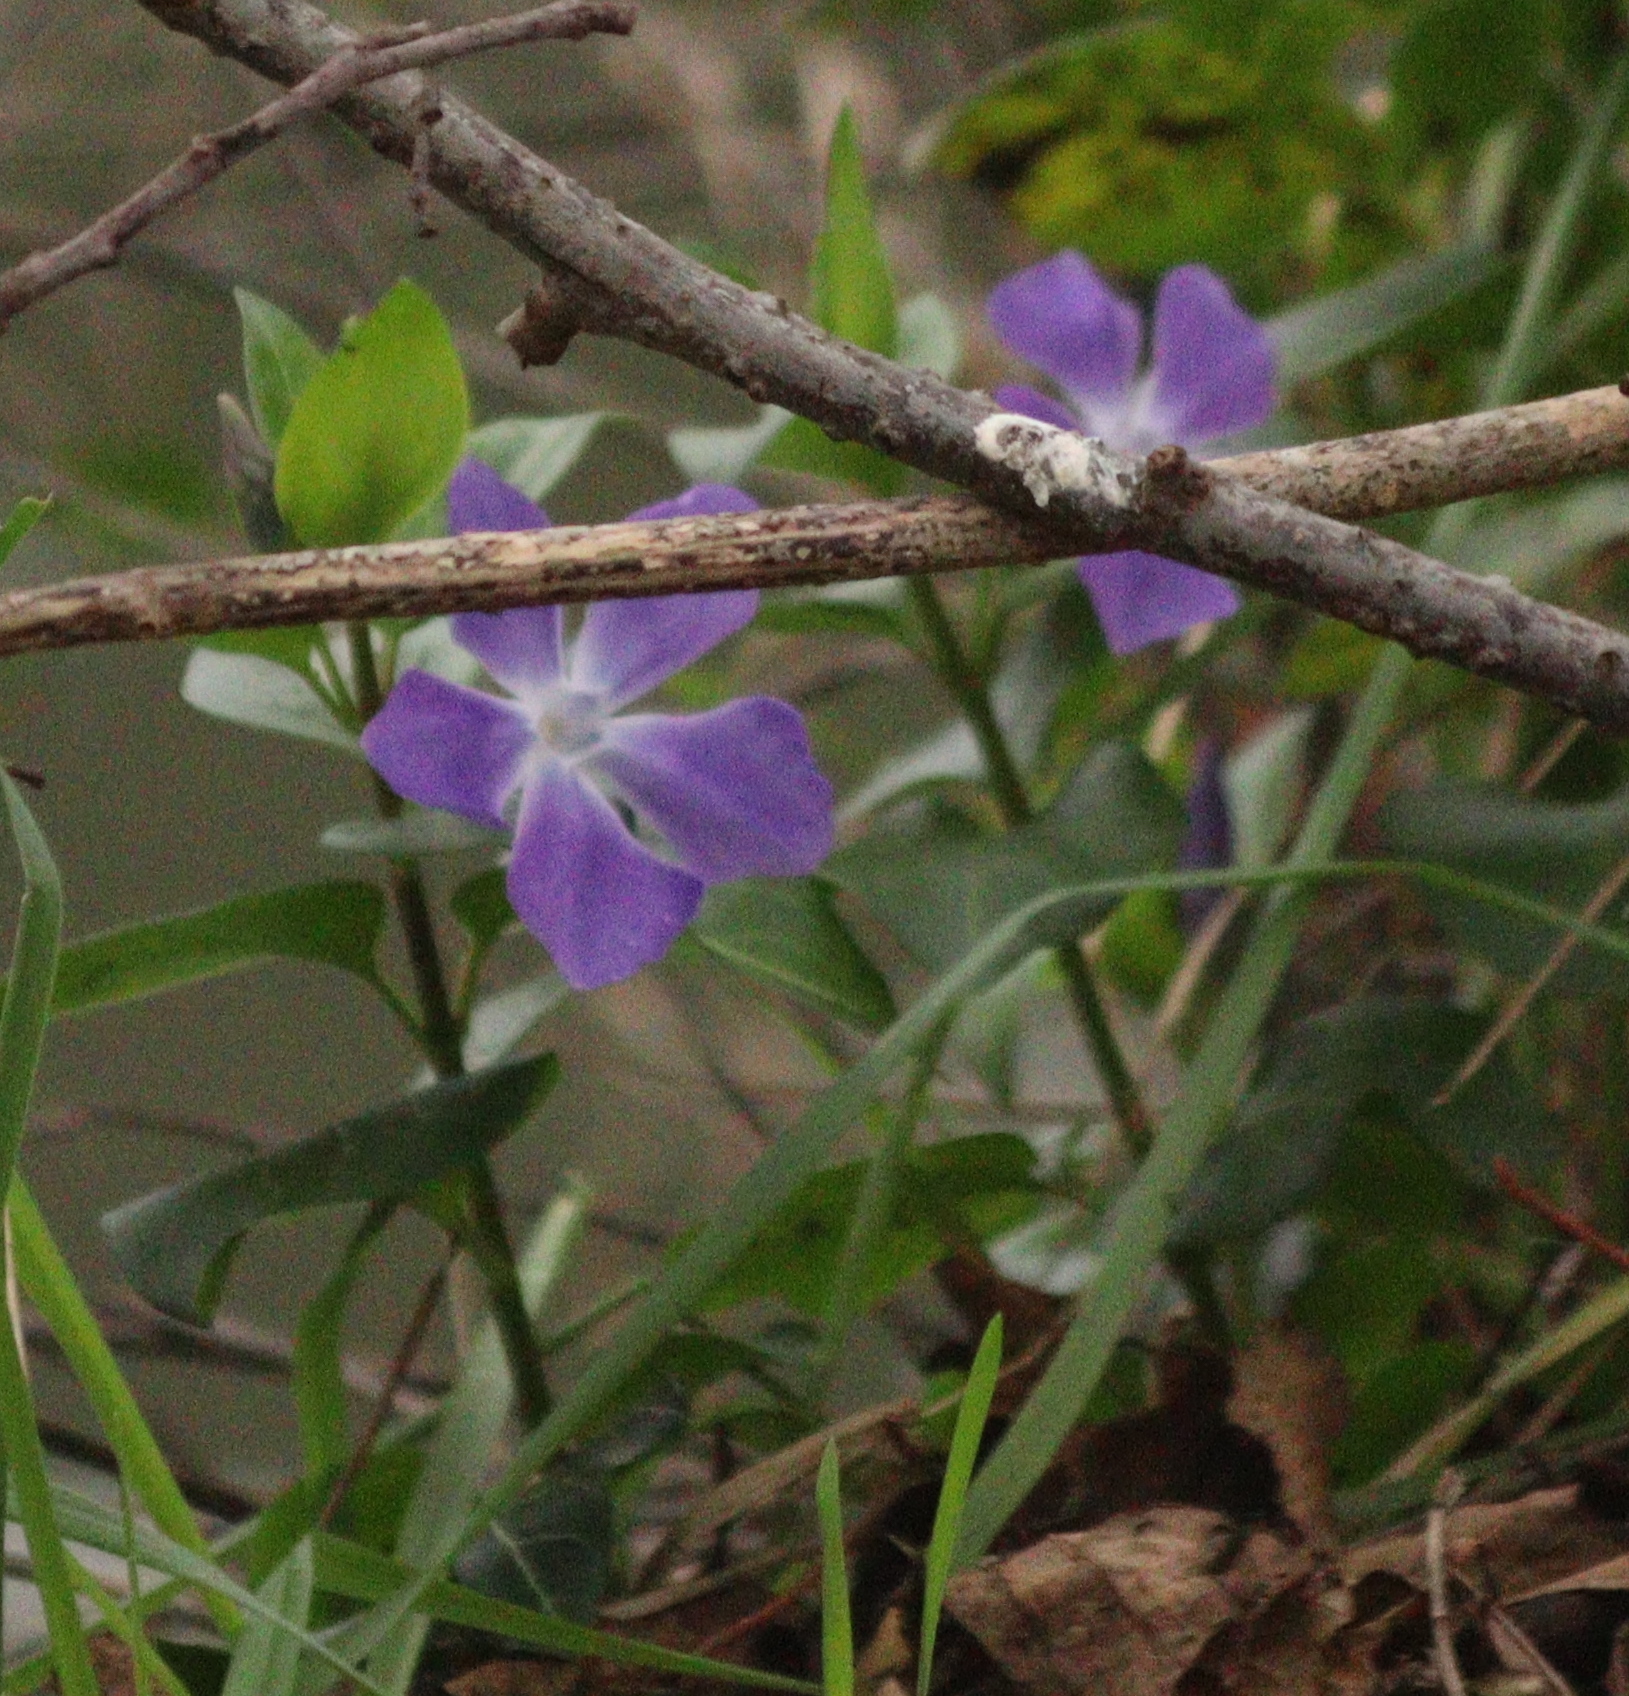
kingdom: Plantae
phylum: Tracheophyta
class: Magnoliopsida
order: Gentianales
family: Apocynaceae
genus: Vinca
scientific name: Vinca major
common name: Greater periwinkle
